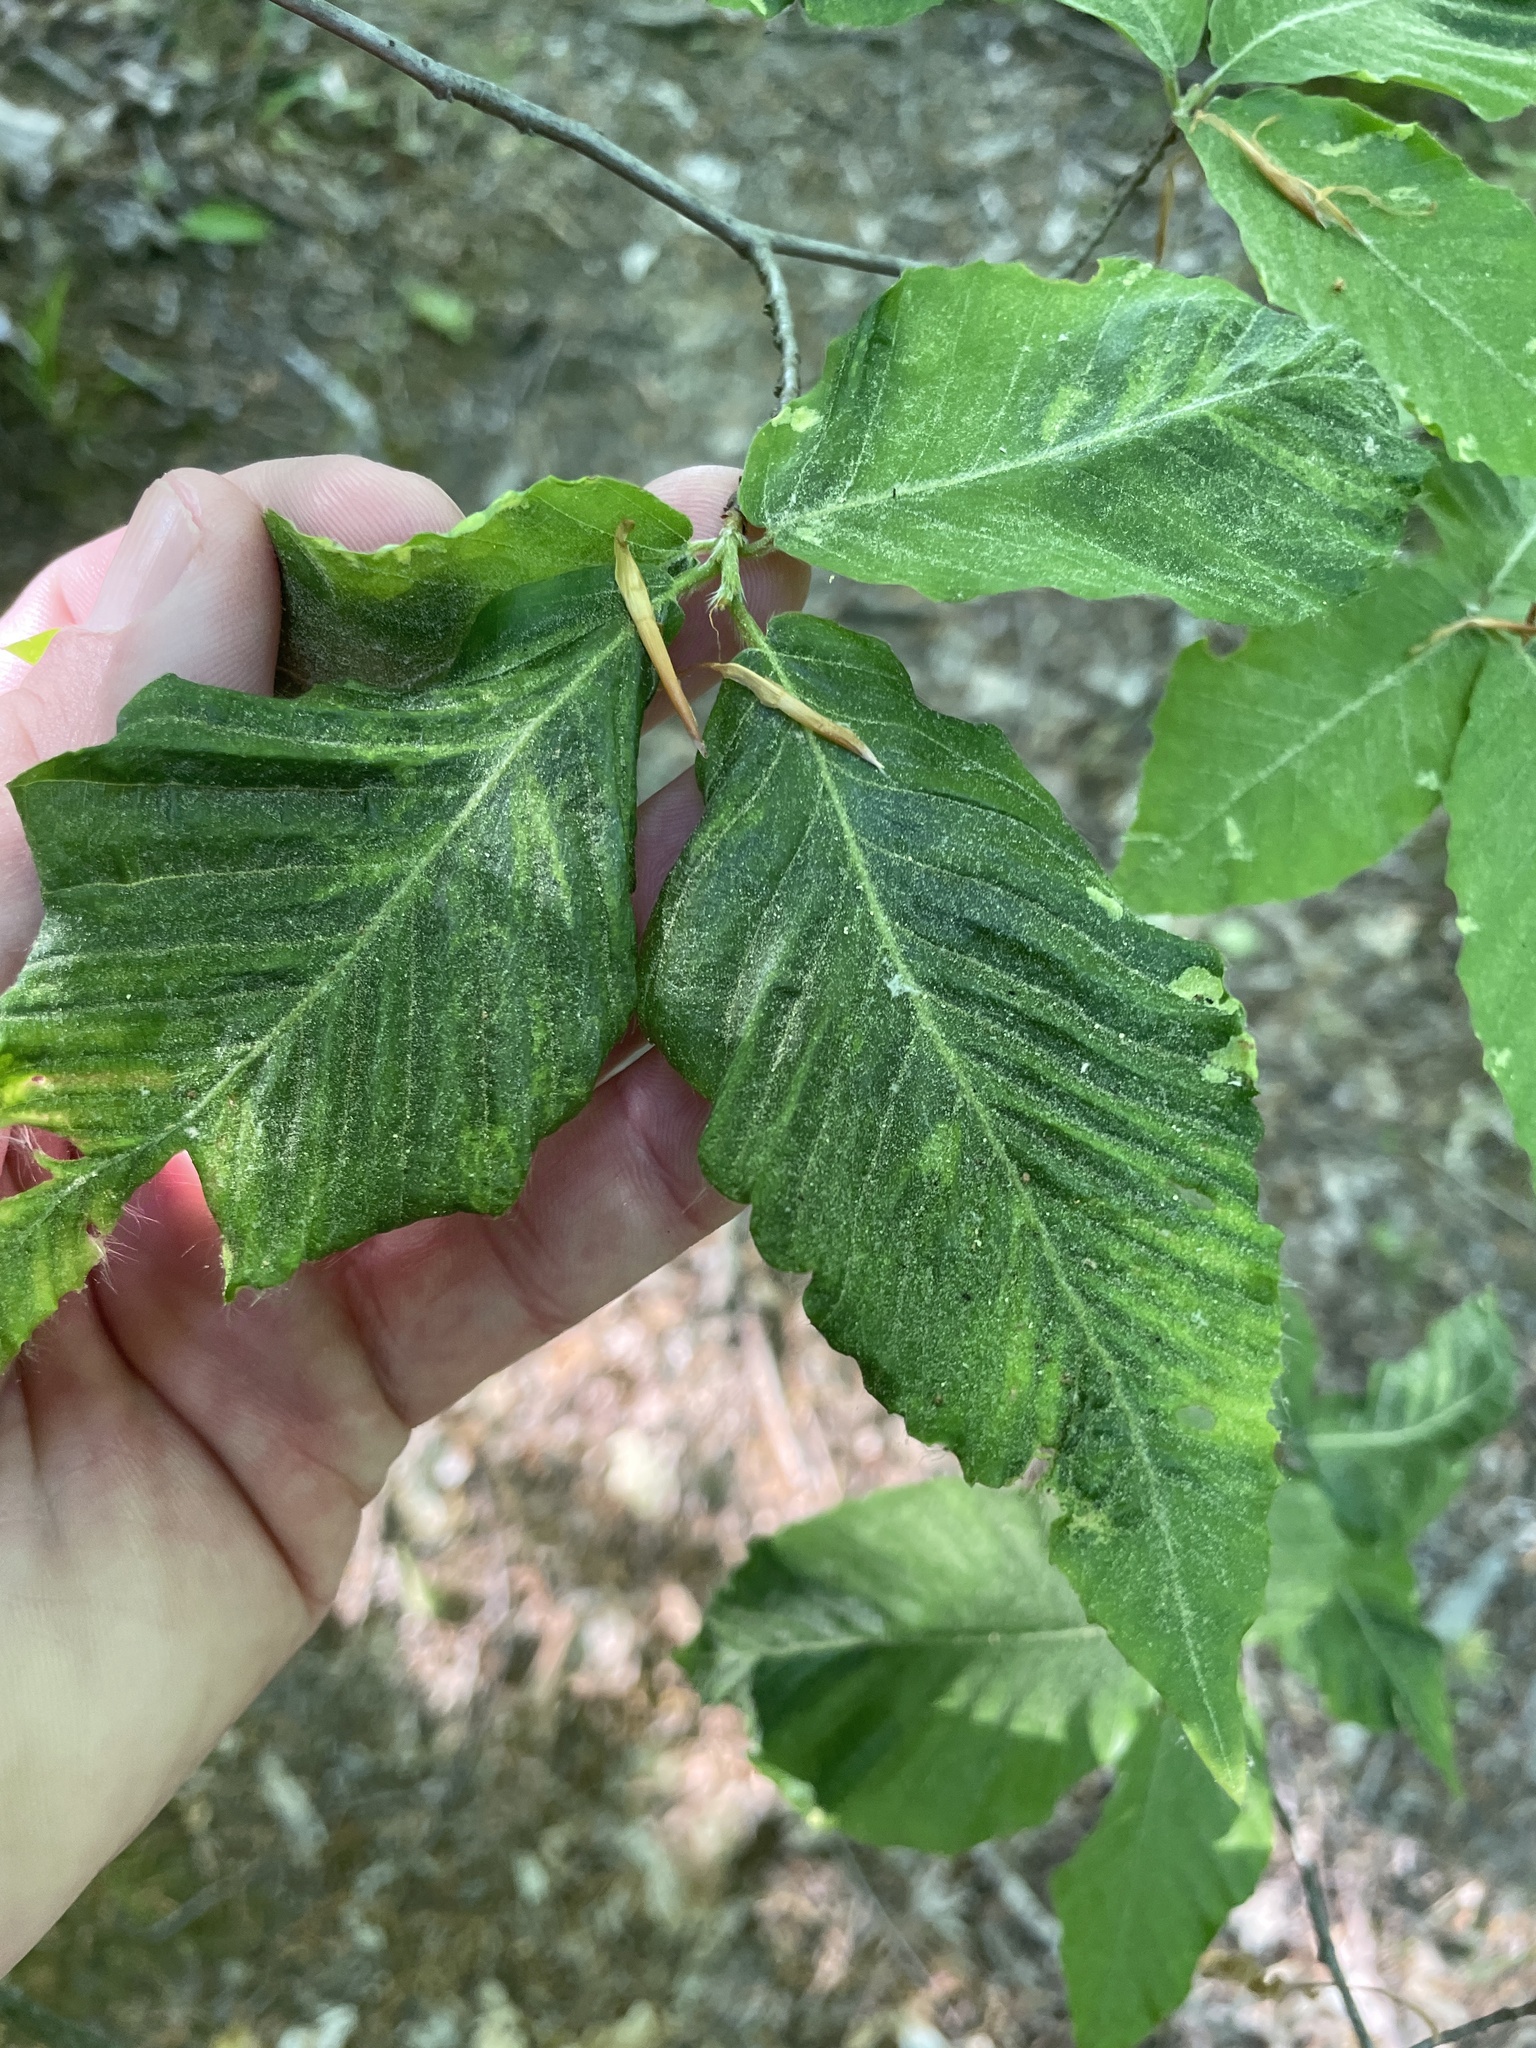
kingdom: Animalia
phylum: Nematoda
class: Chromadorea
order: Rhabditida
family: Anguinidae
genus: Litylenchus
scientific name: Litylenchus crenatae
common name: Beech leaf disease
